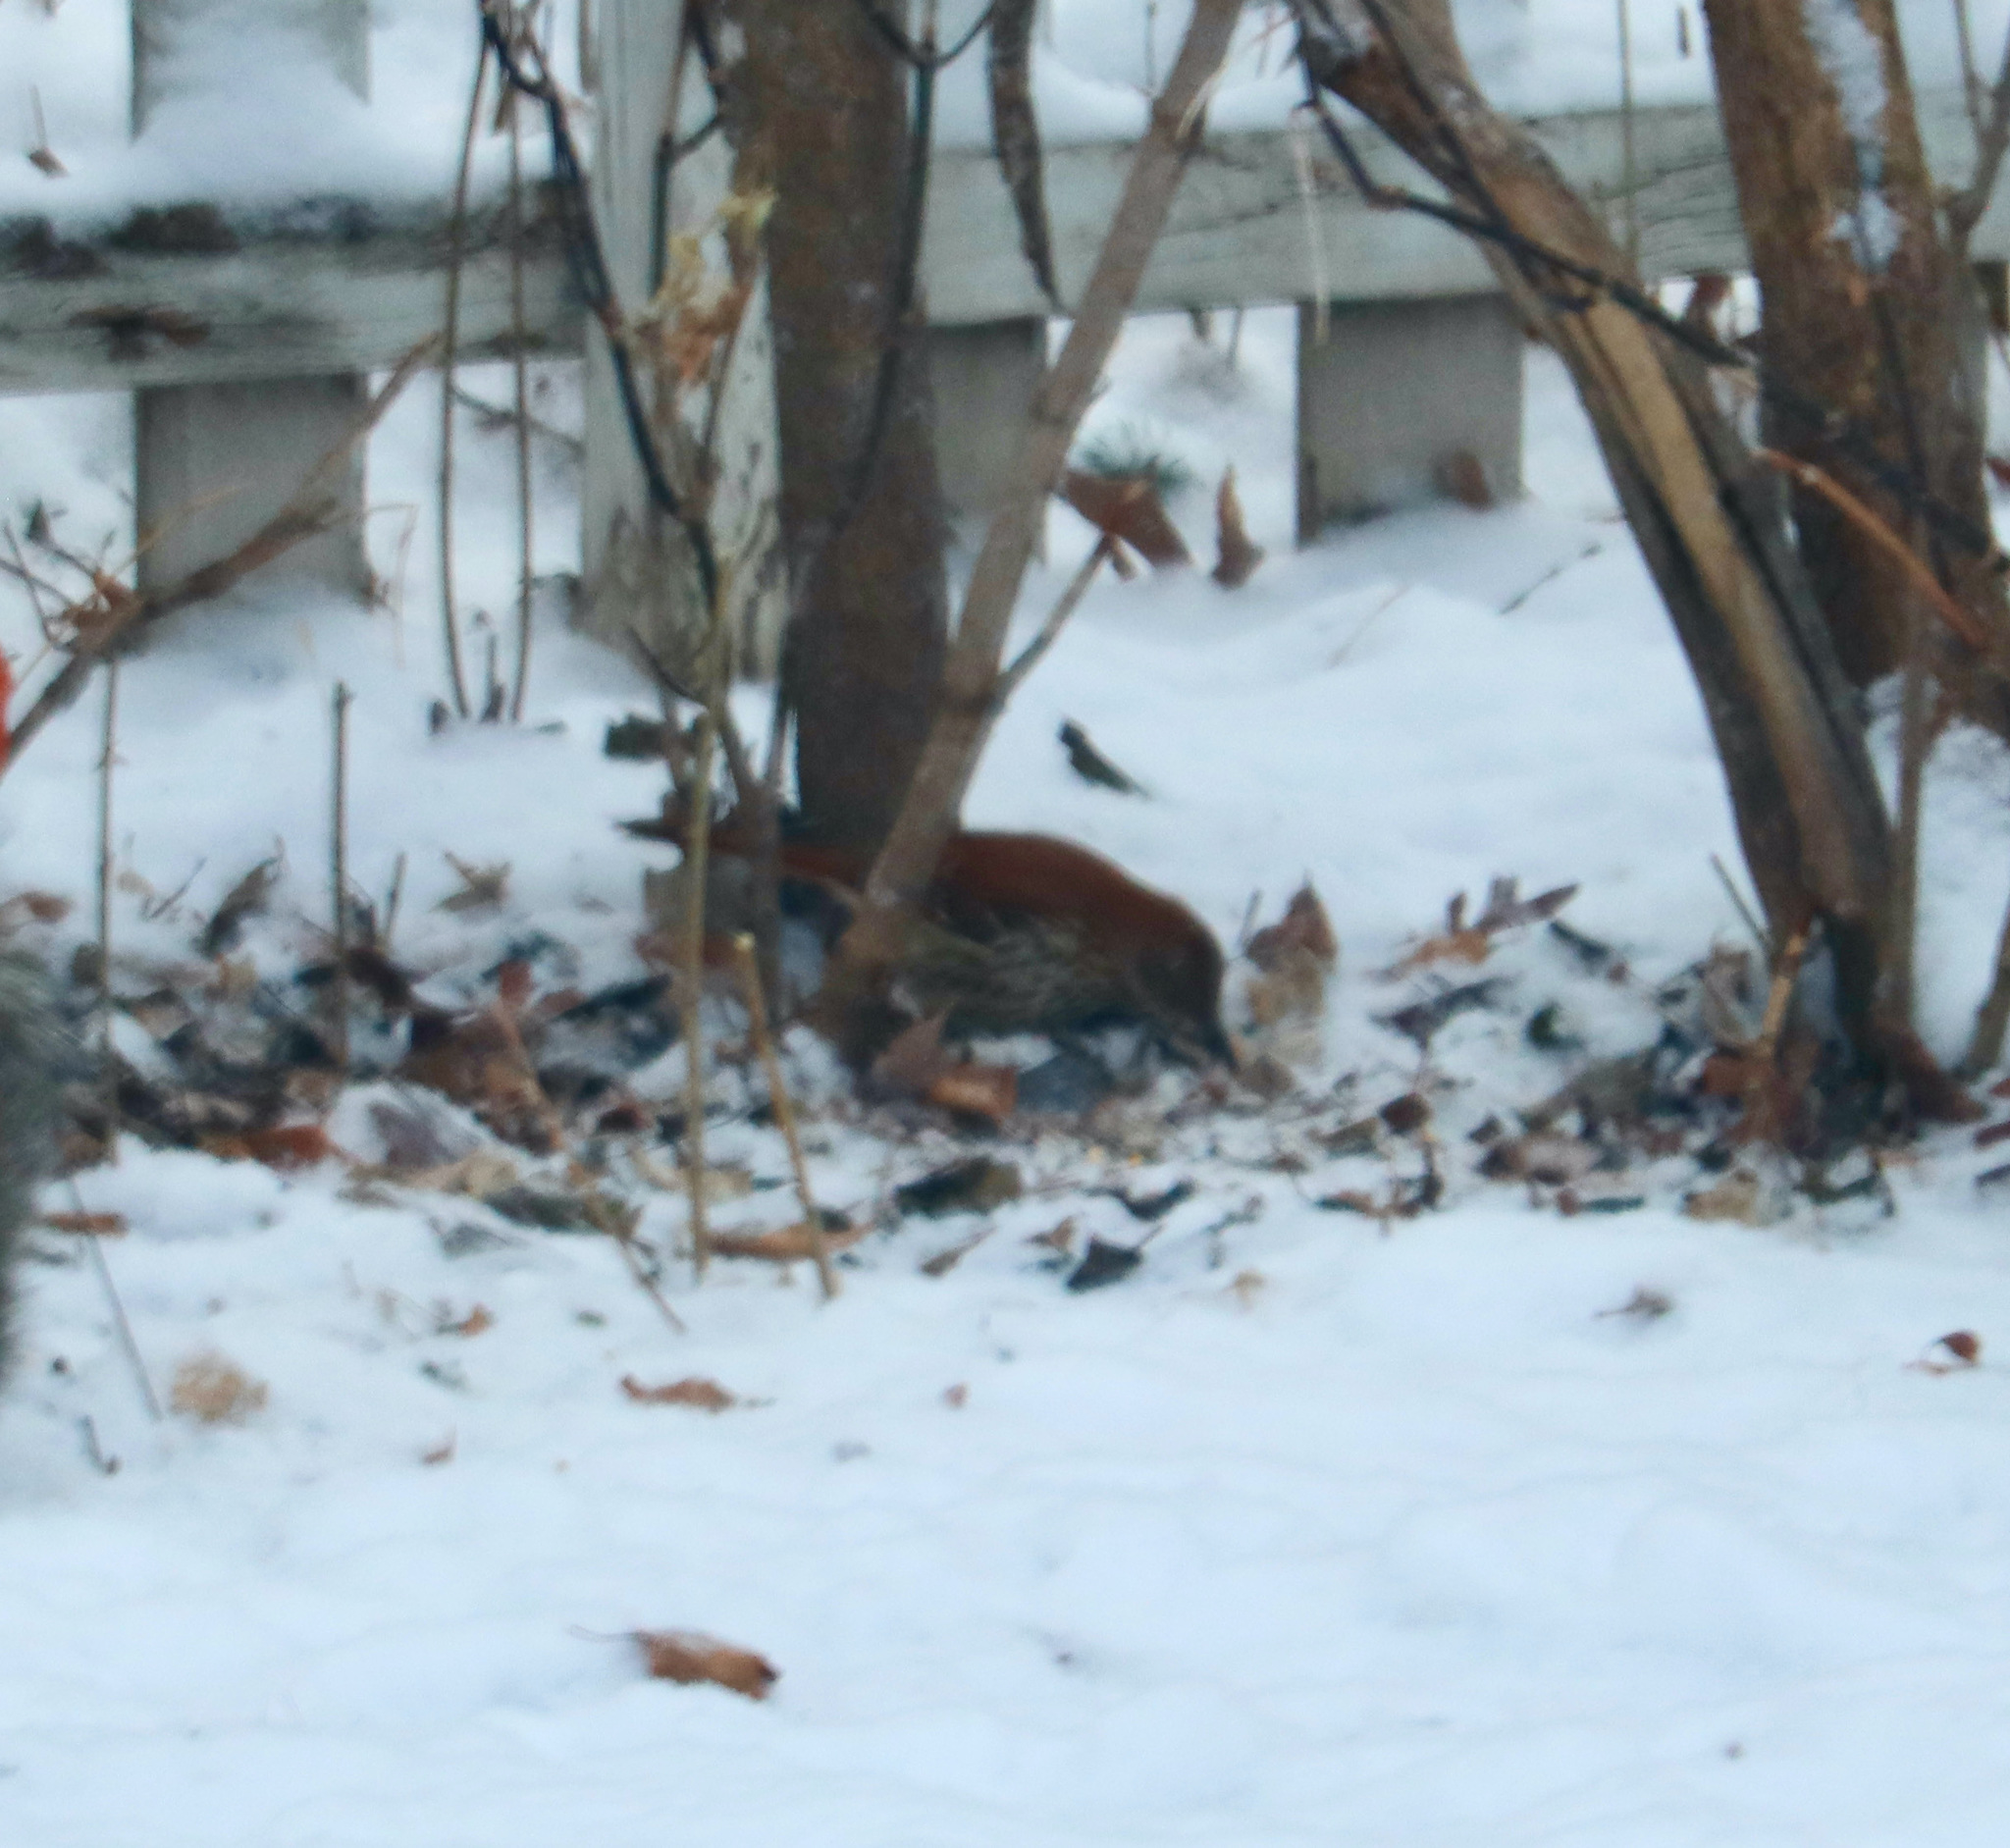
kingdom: Animalia
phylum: Chordata
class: Aves
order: Passeriformes
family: Mimidae
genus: Toxostoma
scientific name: Toxostoma rufum
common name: Brown thrasher
